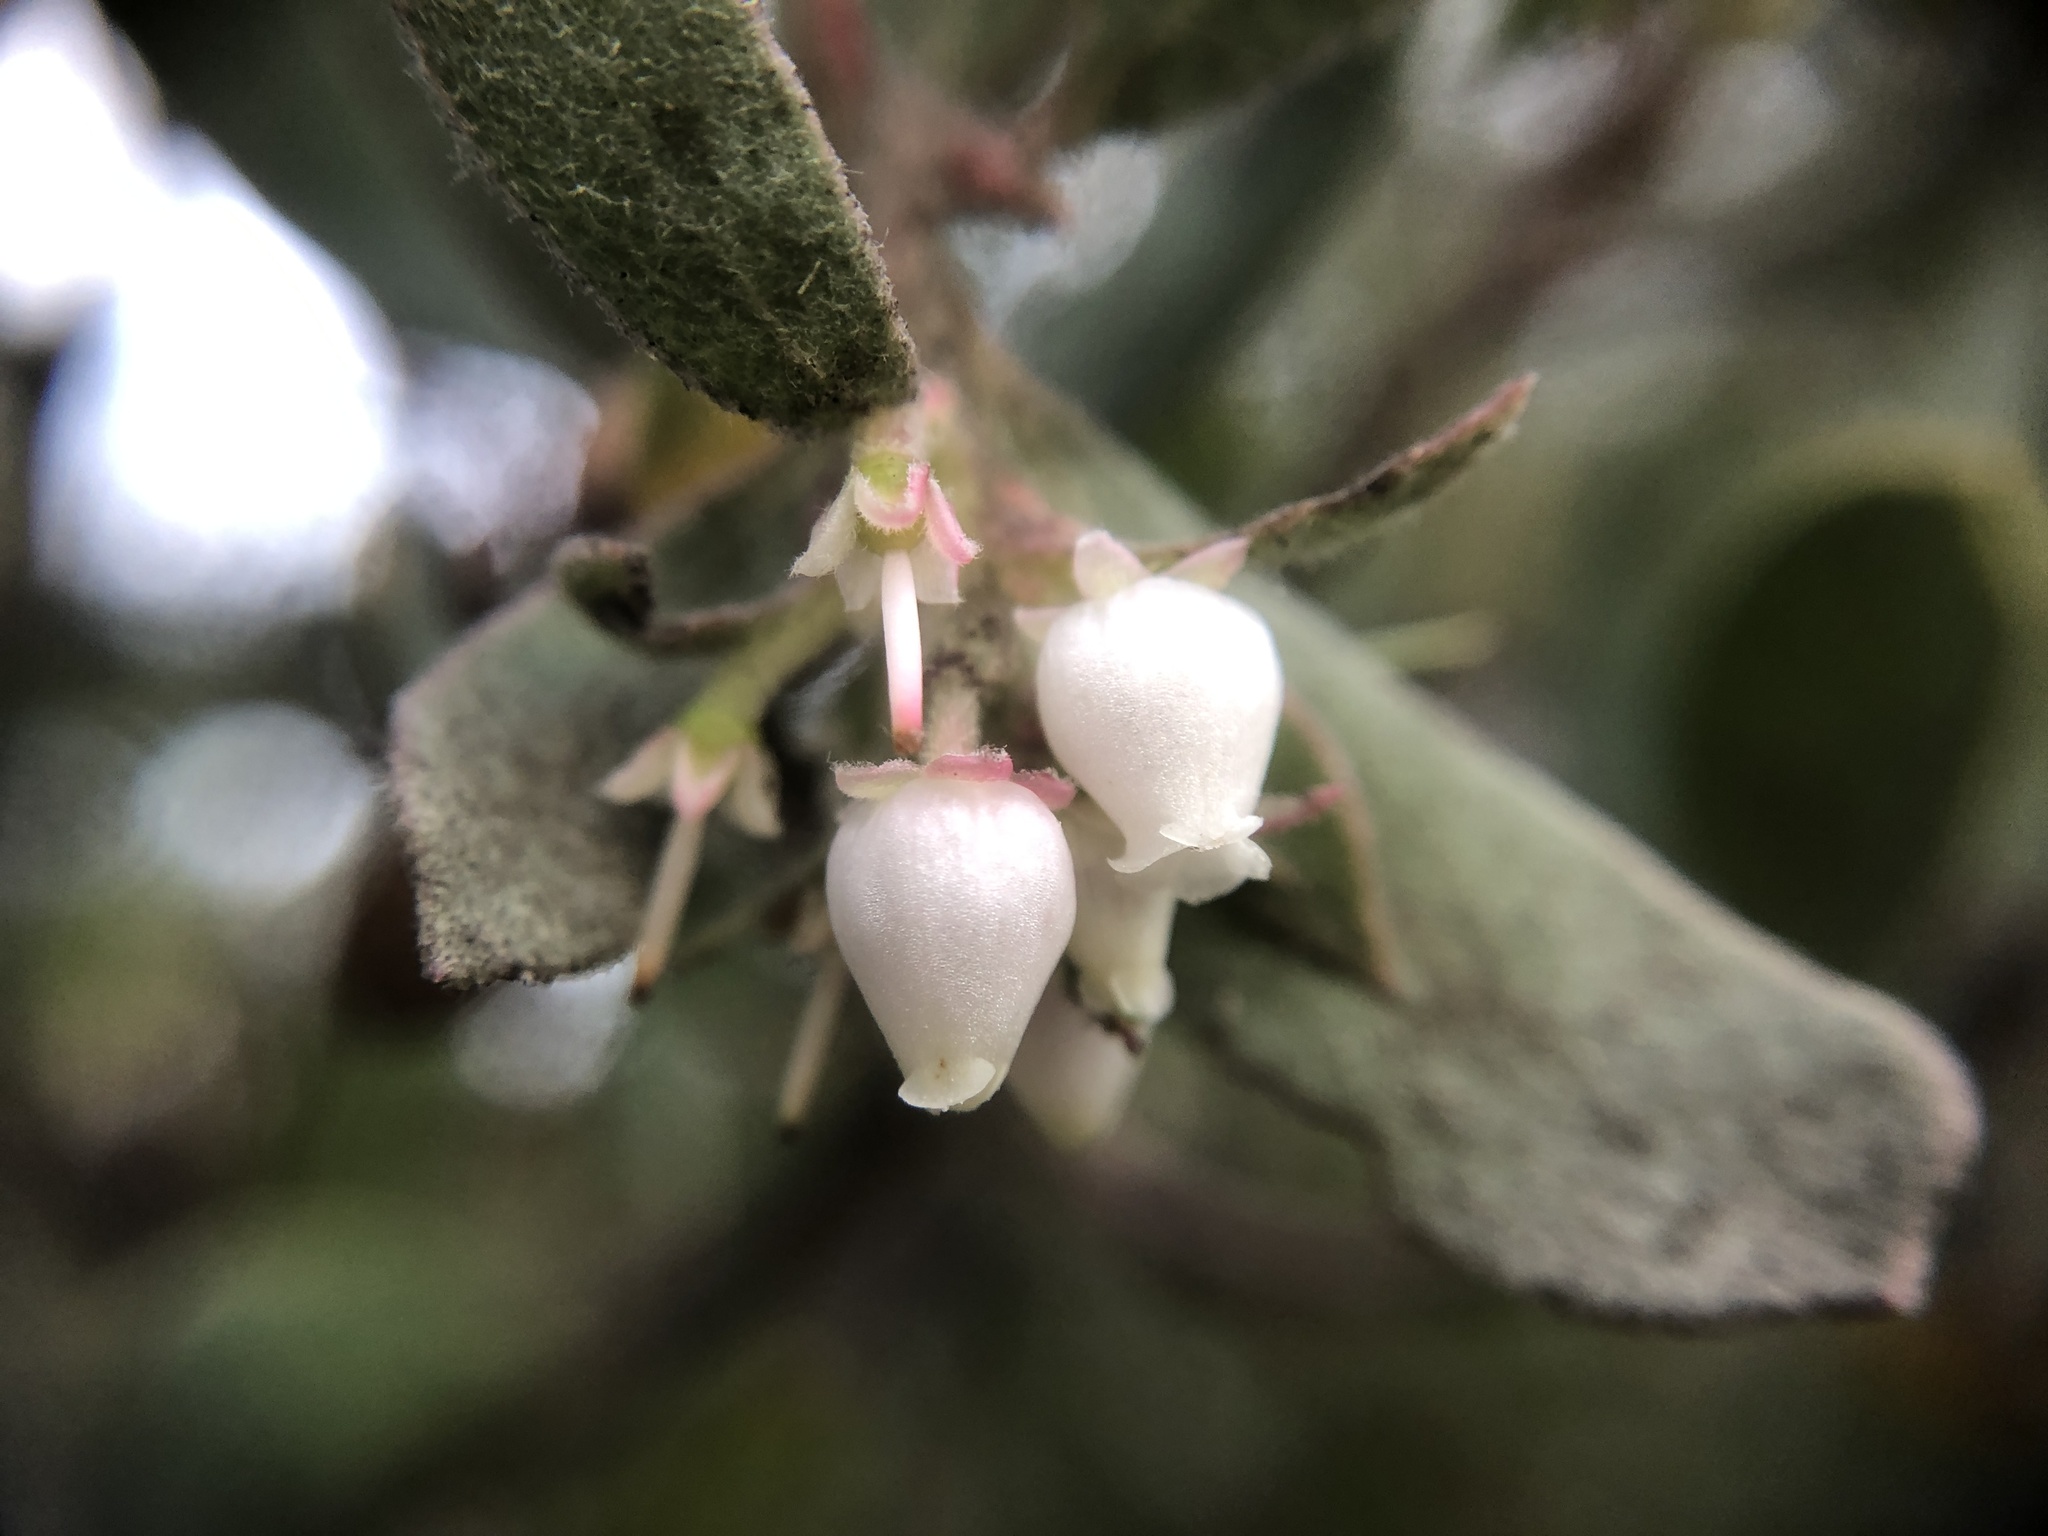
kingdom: Plantae
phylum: Tracheophyta
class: Magnoliopsida
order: Ericales
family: Ericaceae
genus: Arctostaphylos
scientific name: Arctostaphylos silvicola
